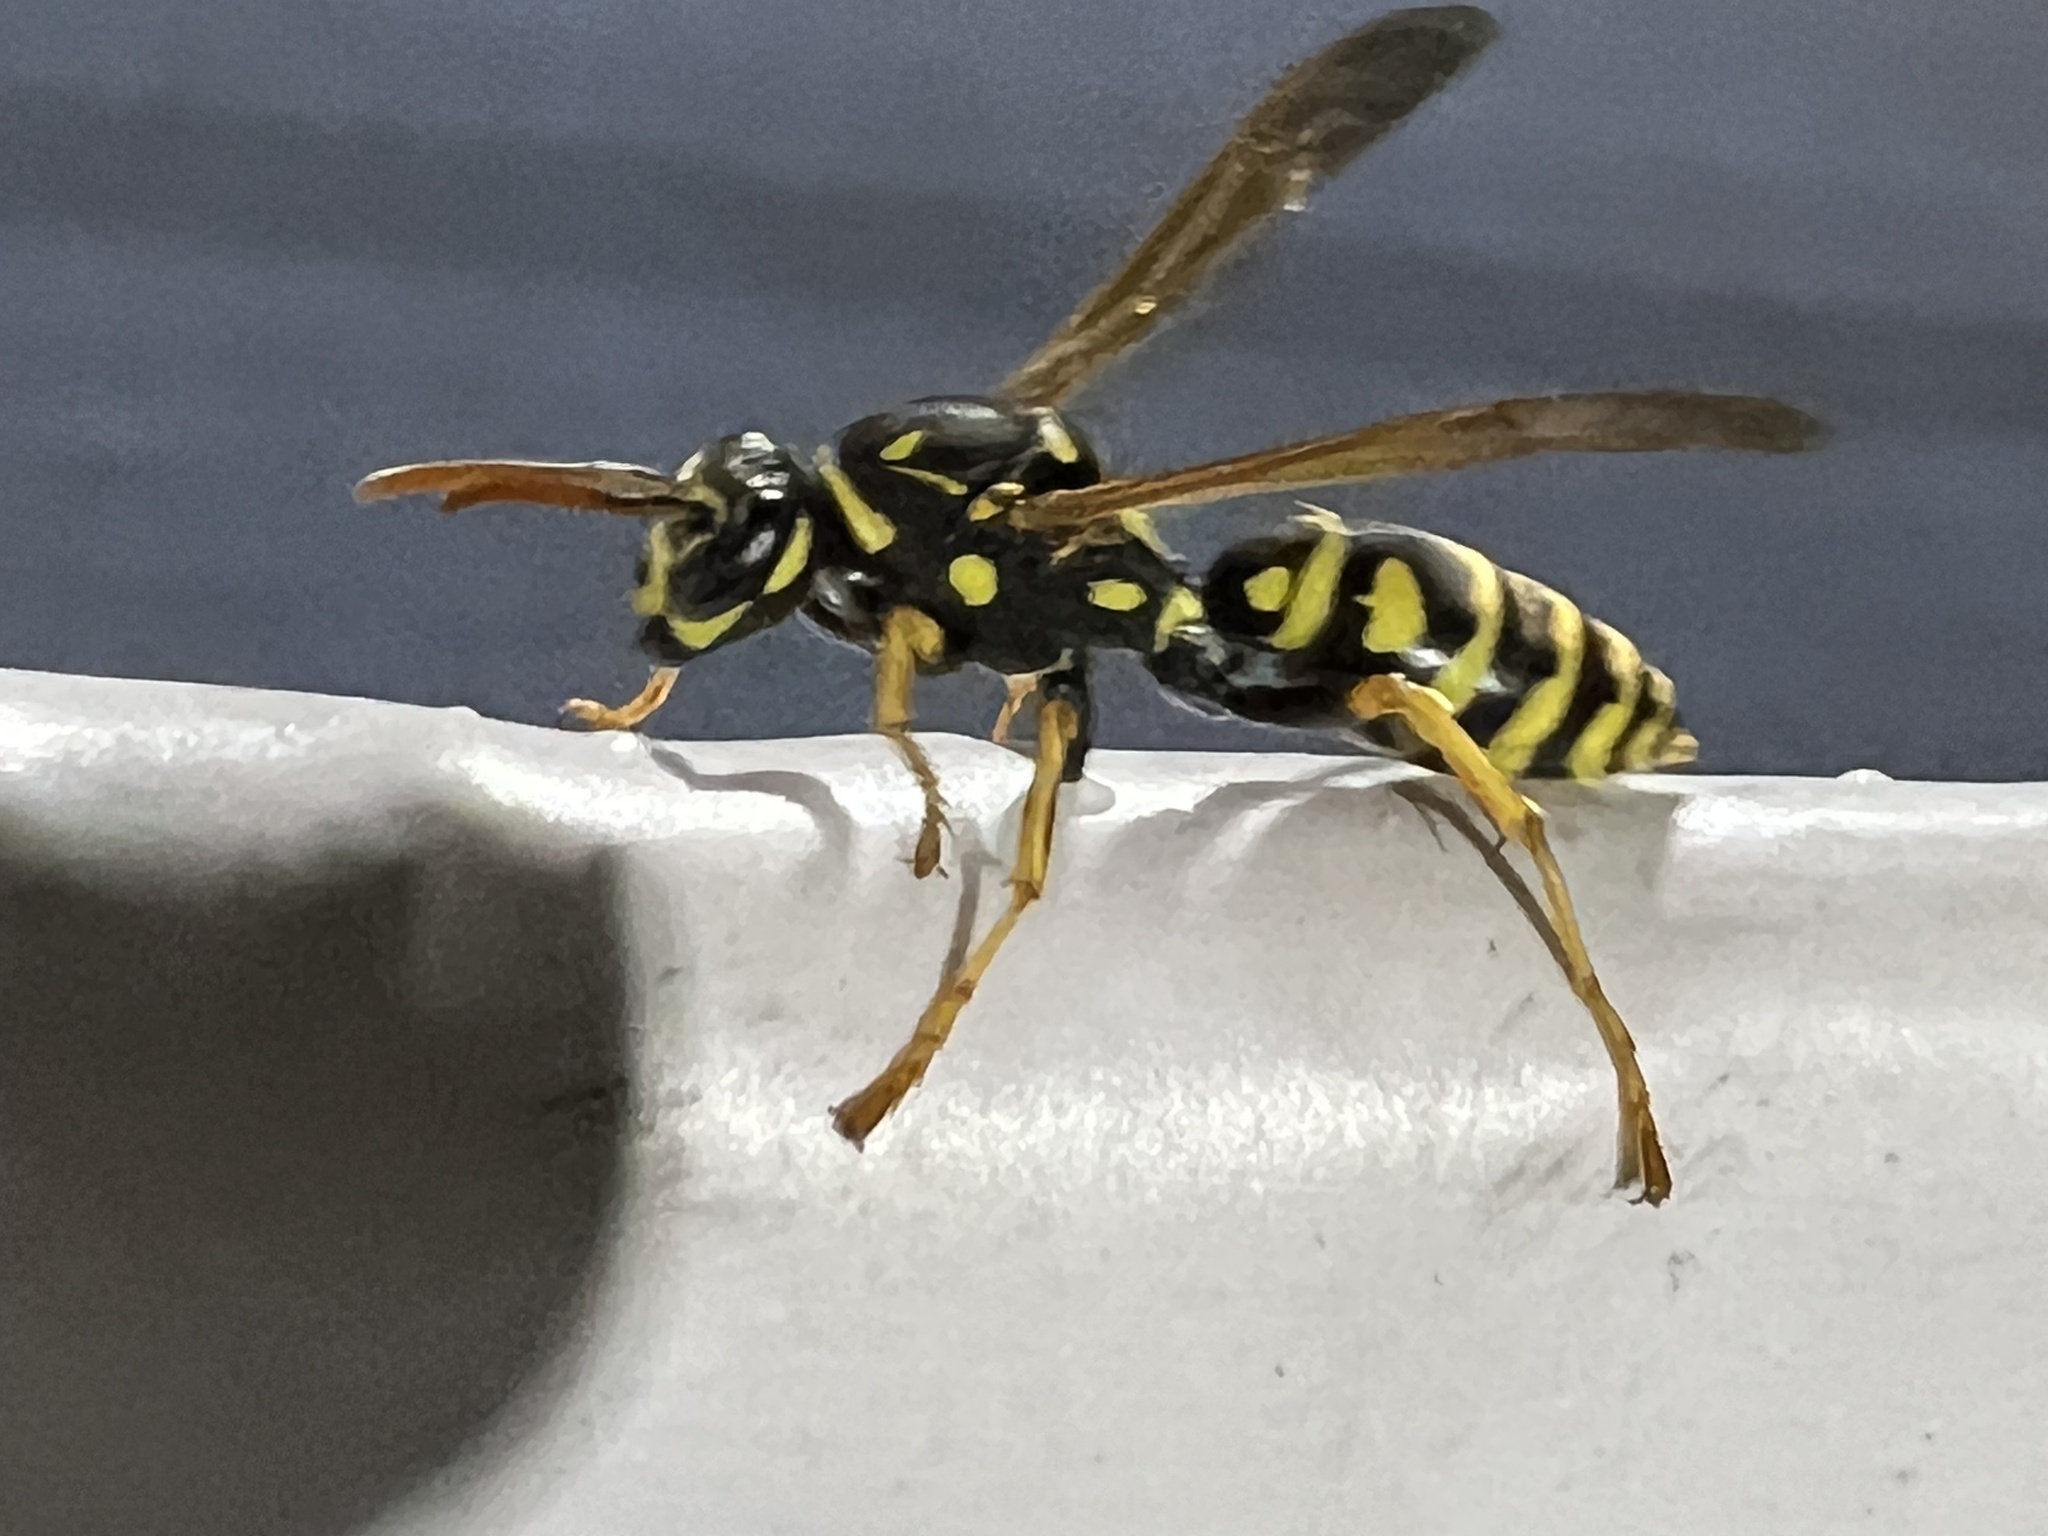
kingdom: Animalia
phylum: Arthropoda
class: Insecta
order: Hymenoptera
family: Eumenidae
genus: Polistes
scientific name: Polistes dominula
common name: Paper wasp
